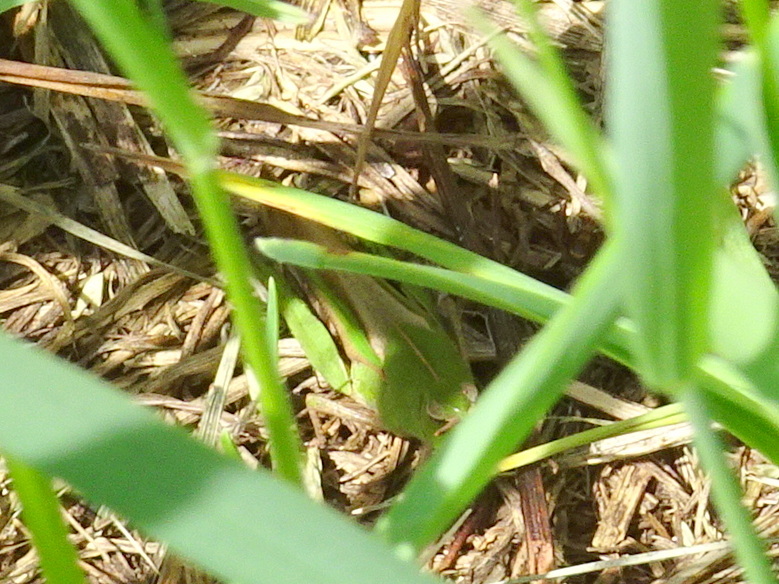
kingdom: Animalia
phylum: Arthropoda
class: Insecta
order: Orthoptera
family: Acrididae
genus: Chortophaga
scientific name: Chortophaga viridifasciata
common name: Green-striped grasshopper
